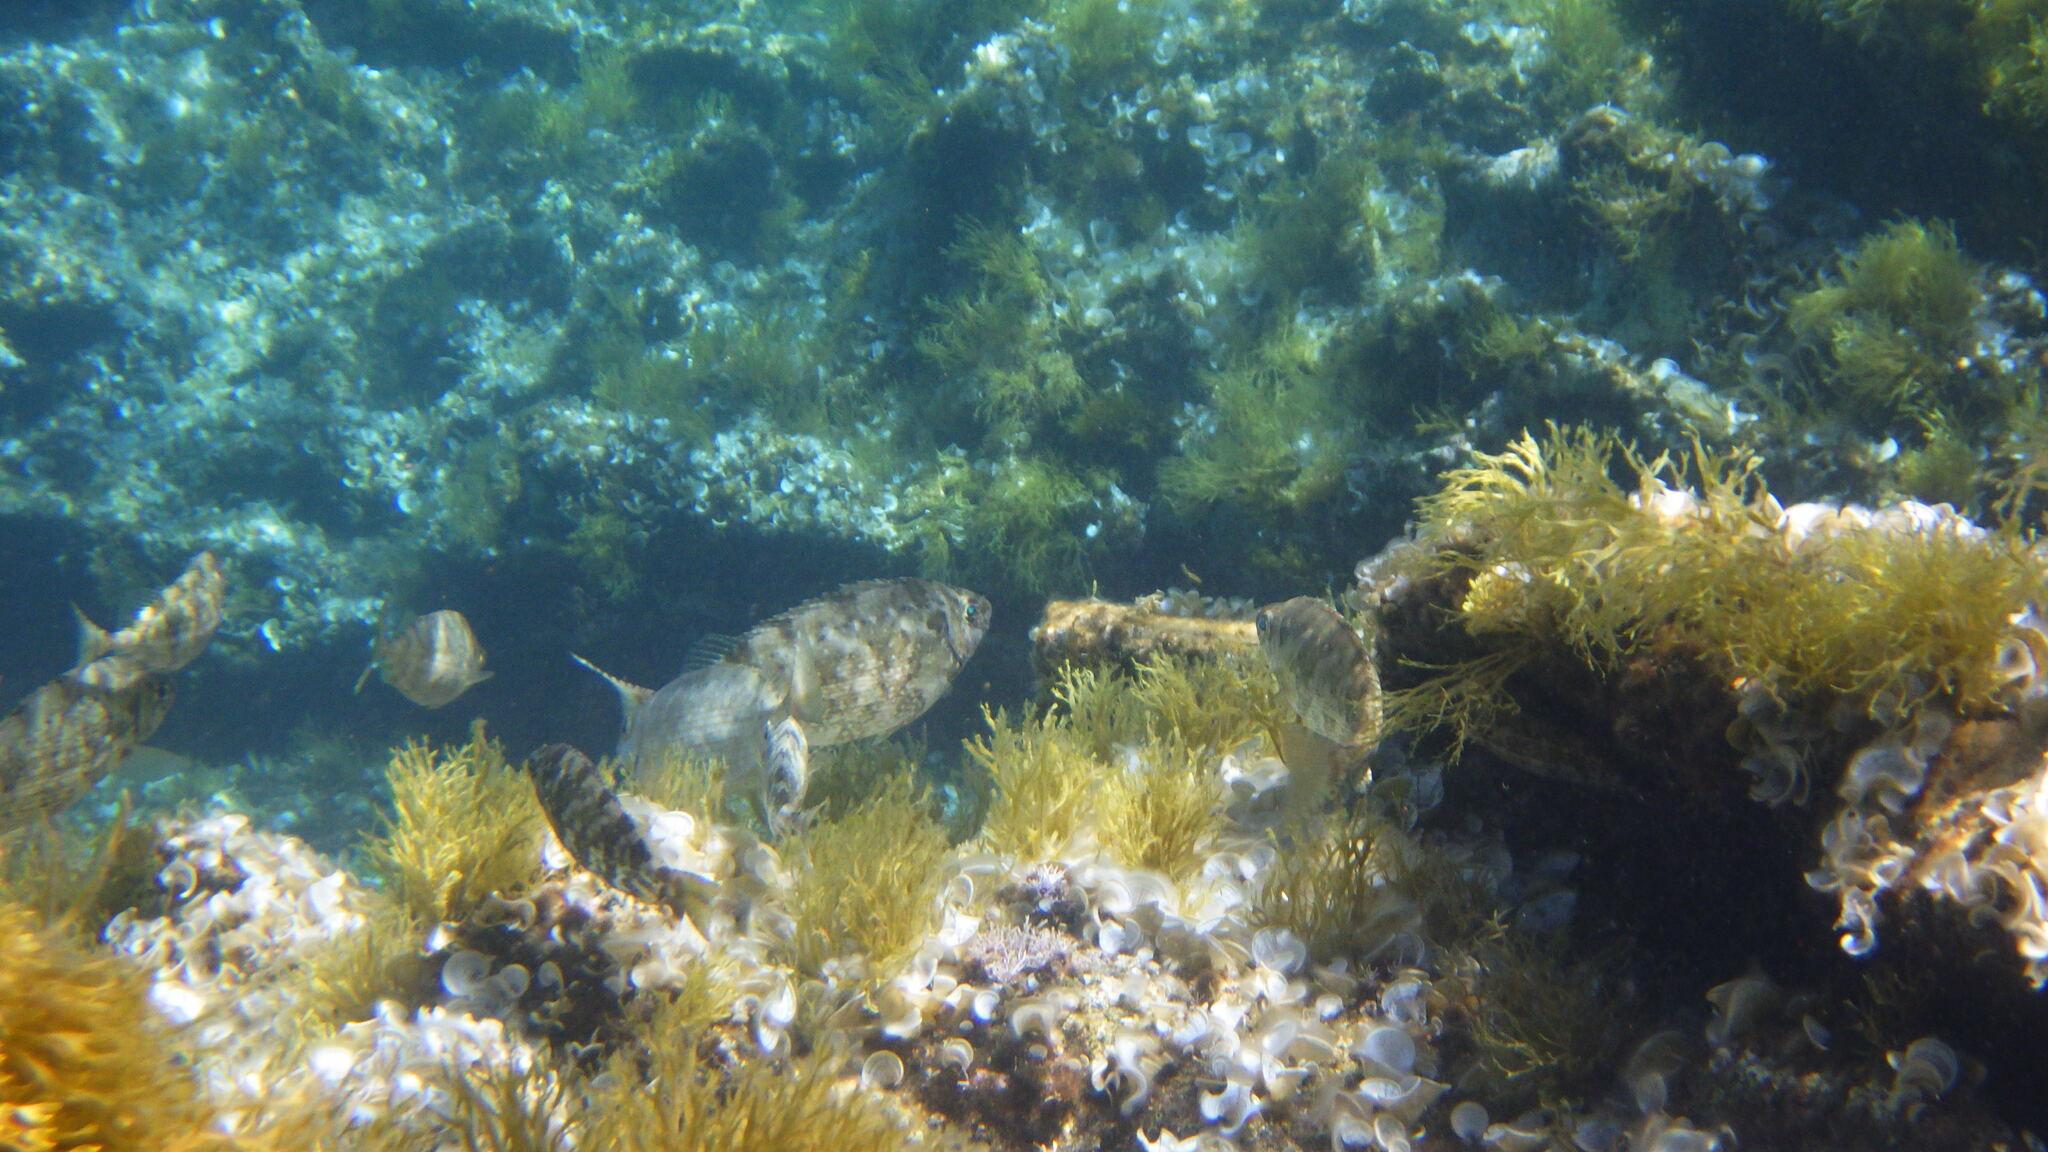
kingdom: Animalia
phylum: Chordata
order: Perciformes
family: Siganidae
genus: Siganus
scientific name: Siganus luridus
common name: Dusky spinefoot
